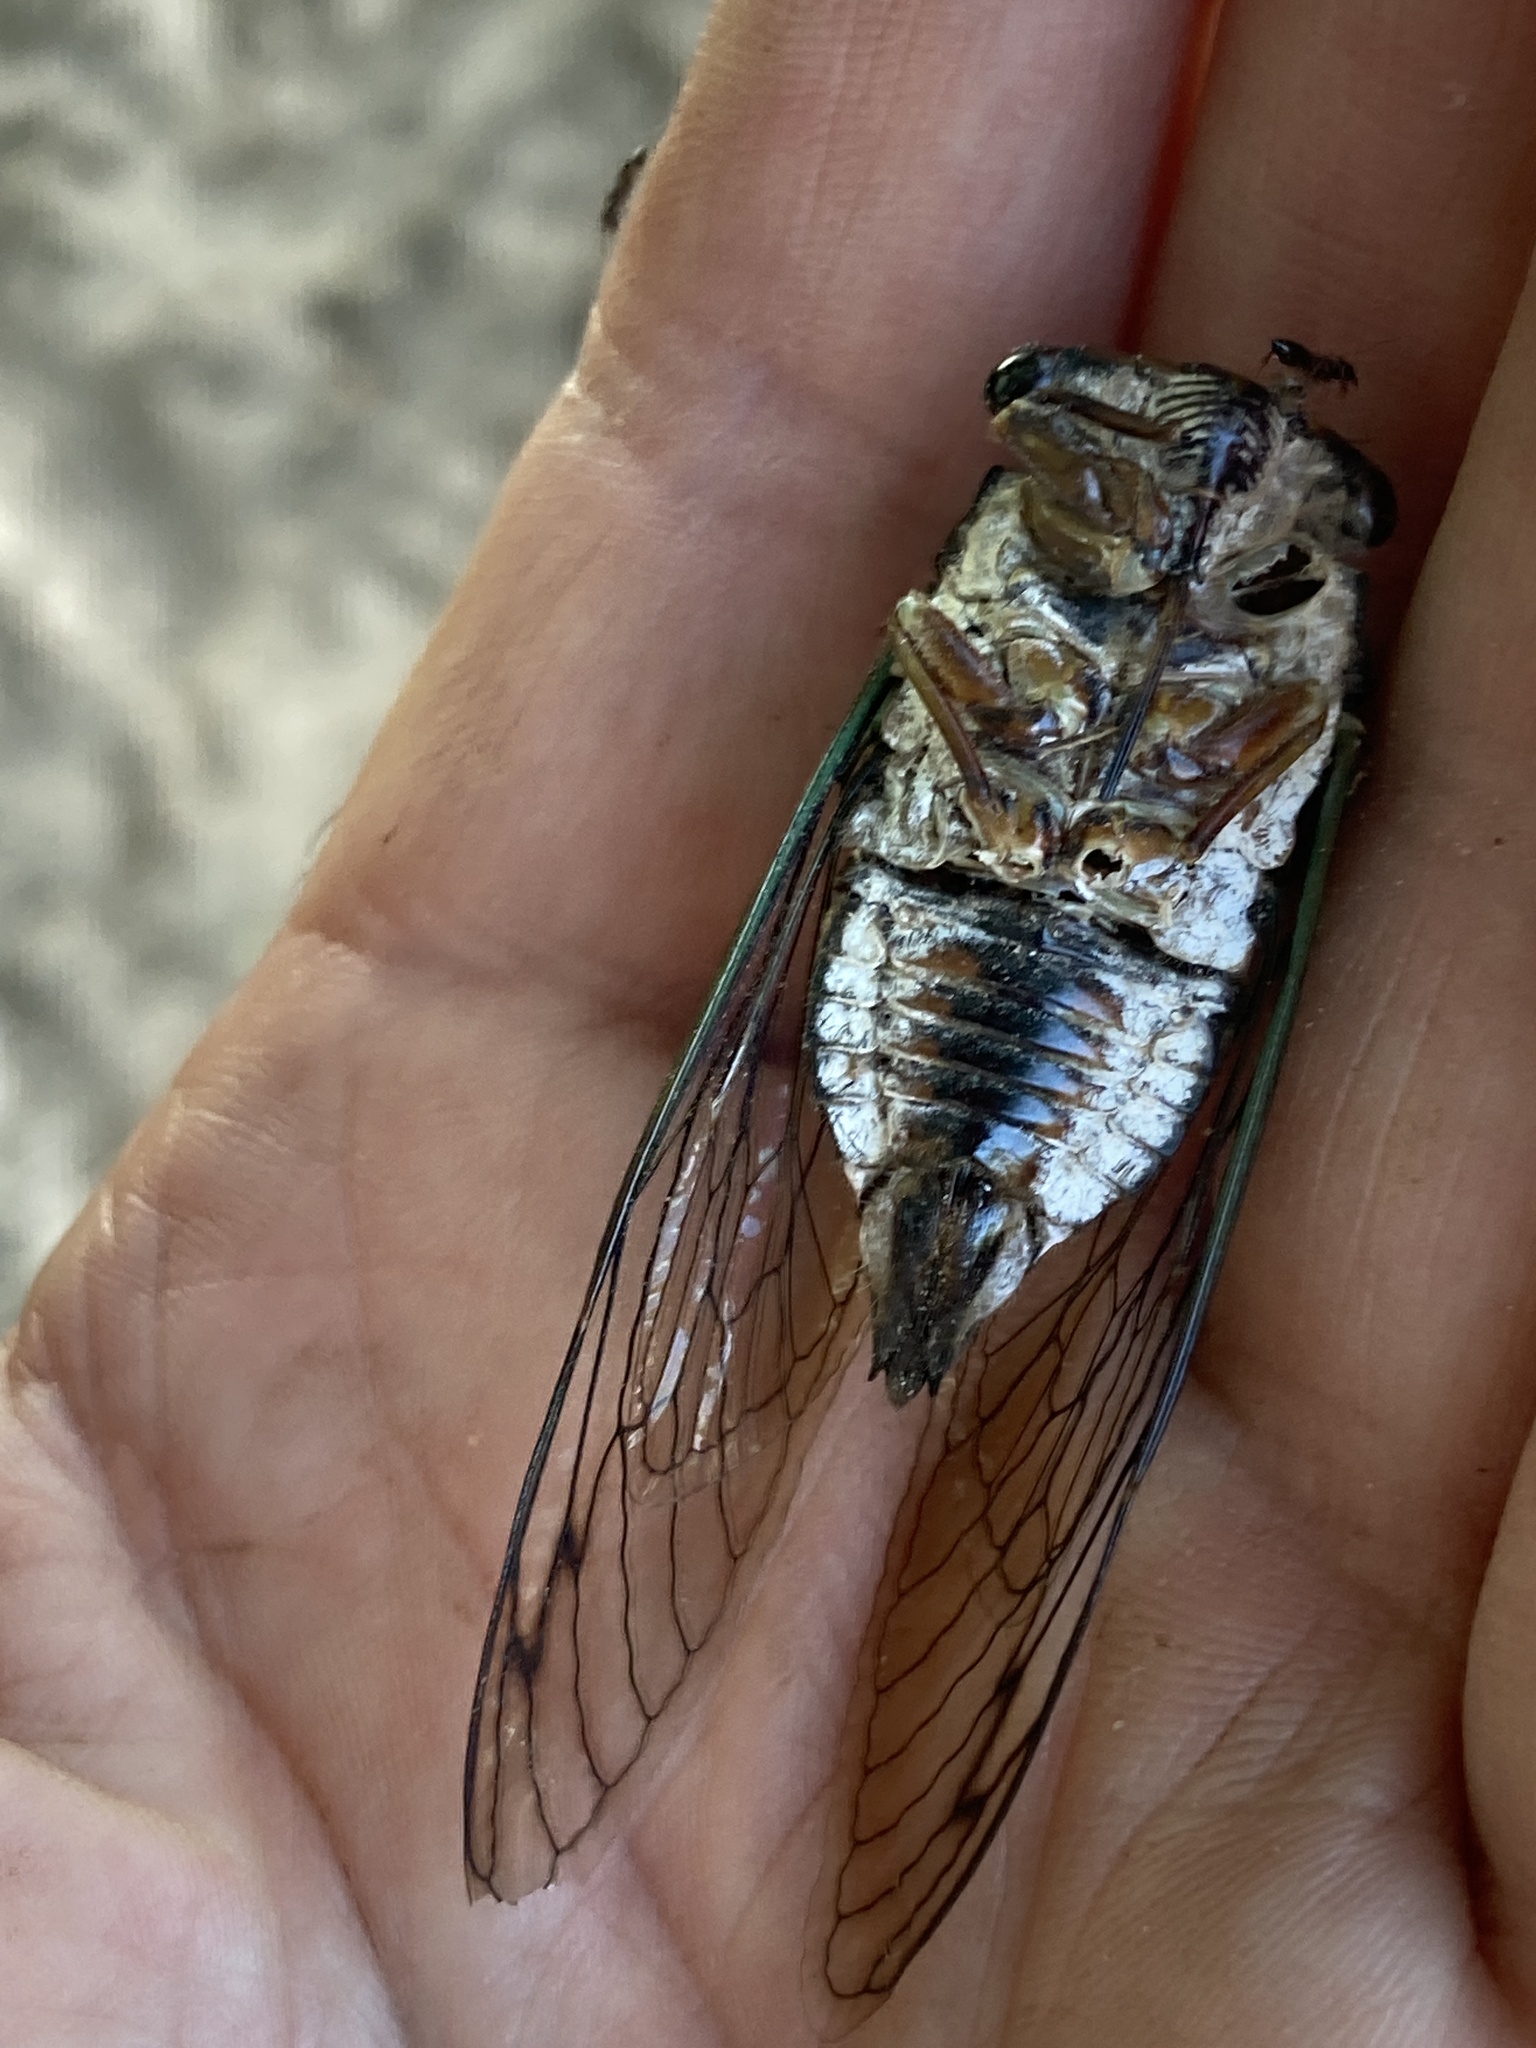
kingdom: Animalia
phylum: Arthropoda
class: Insecta
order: Hemiptera
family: Cicadidae
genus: Neotibicen
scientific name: Neotibicen lyricen
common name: Lyric cicada
